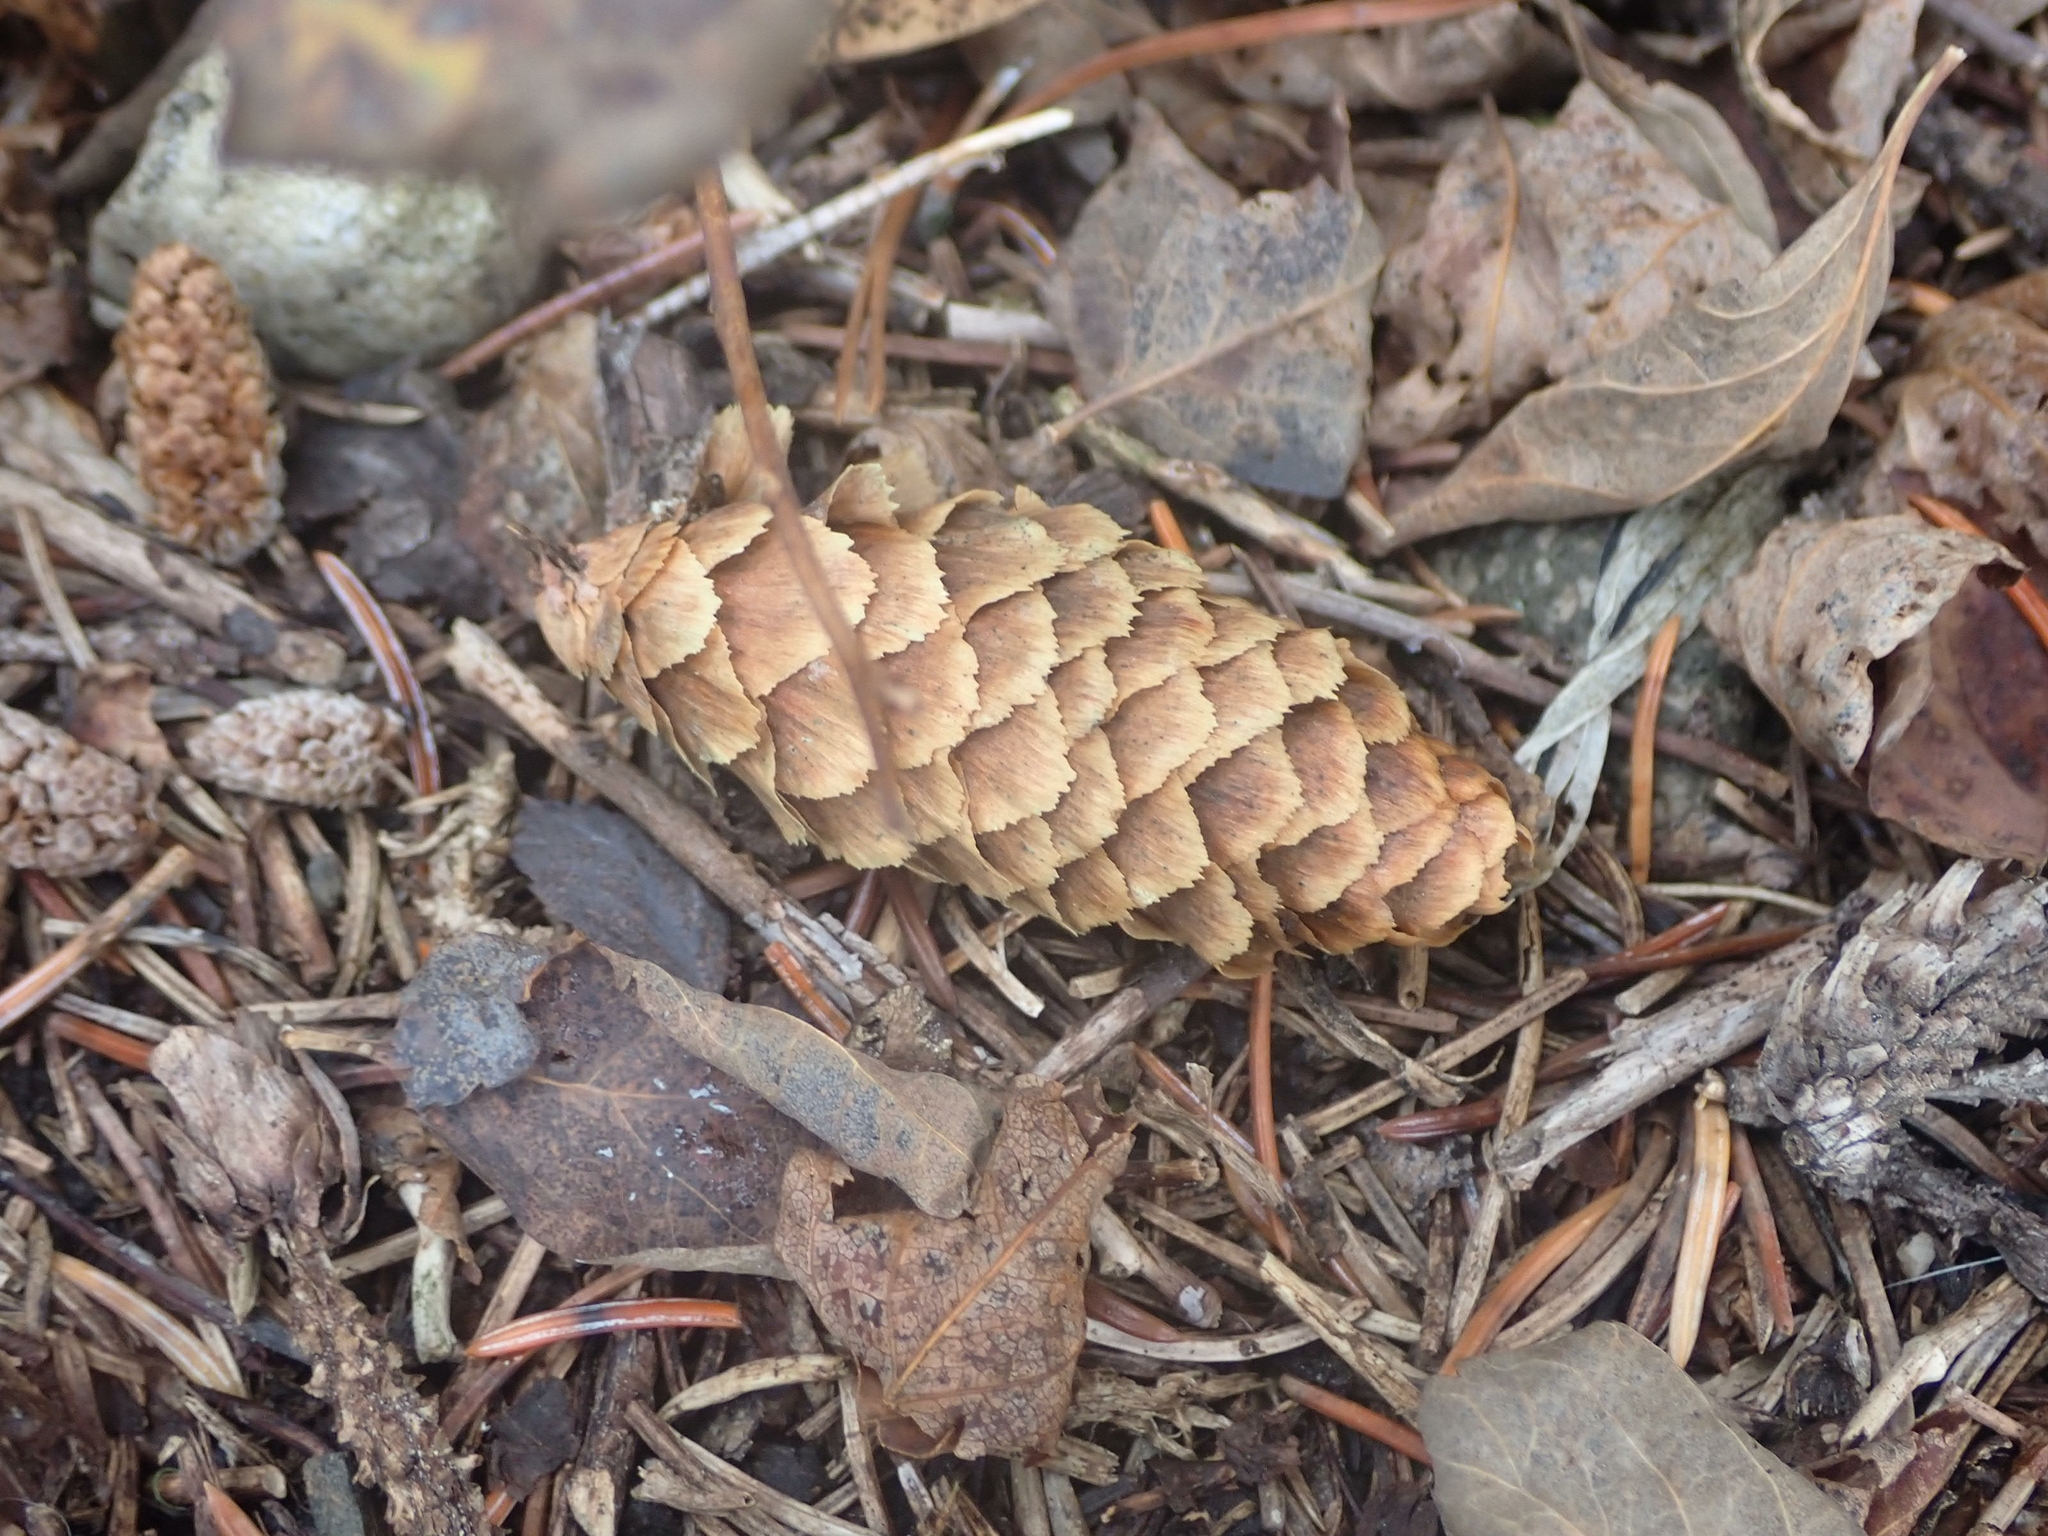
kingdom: Plantae
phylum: Tracheophyta
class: Pinopsida
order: Pinales
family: Pinaceae
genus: Picea
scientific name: Picea engelmannii
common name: Engelmann spruce
